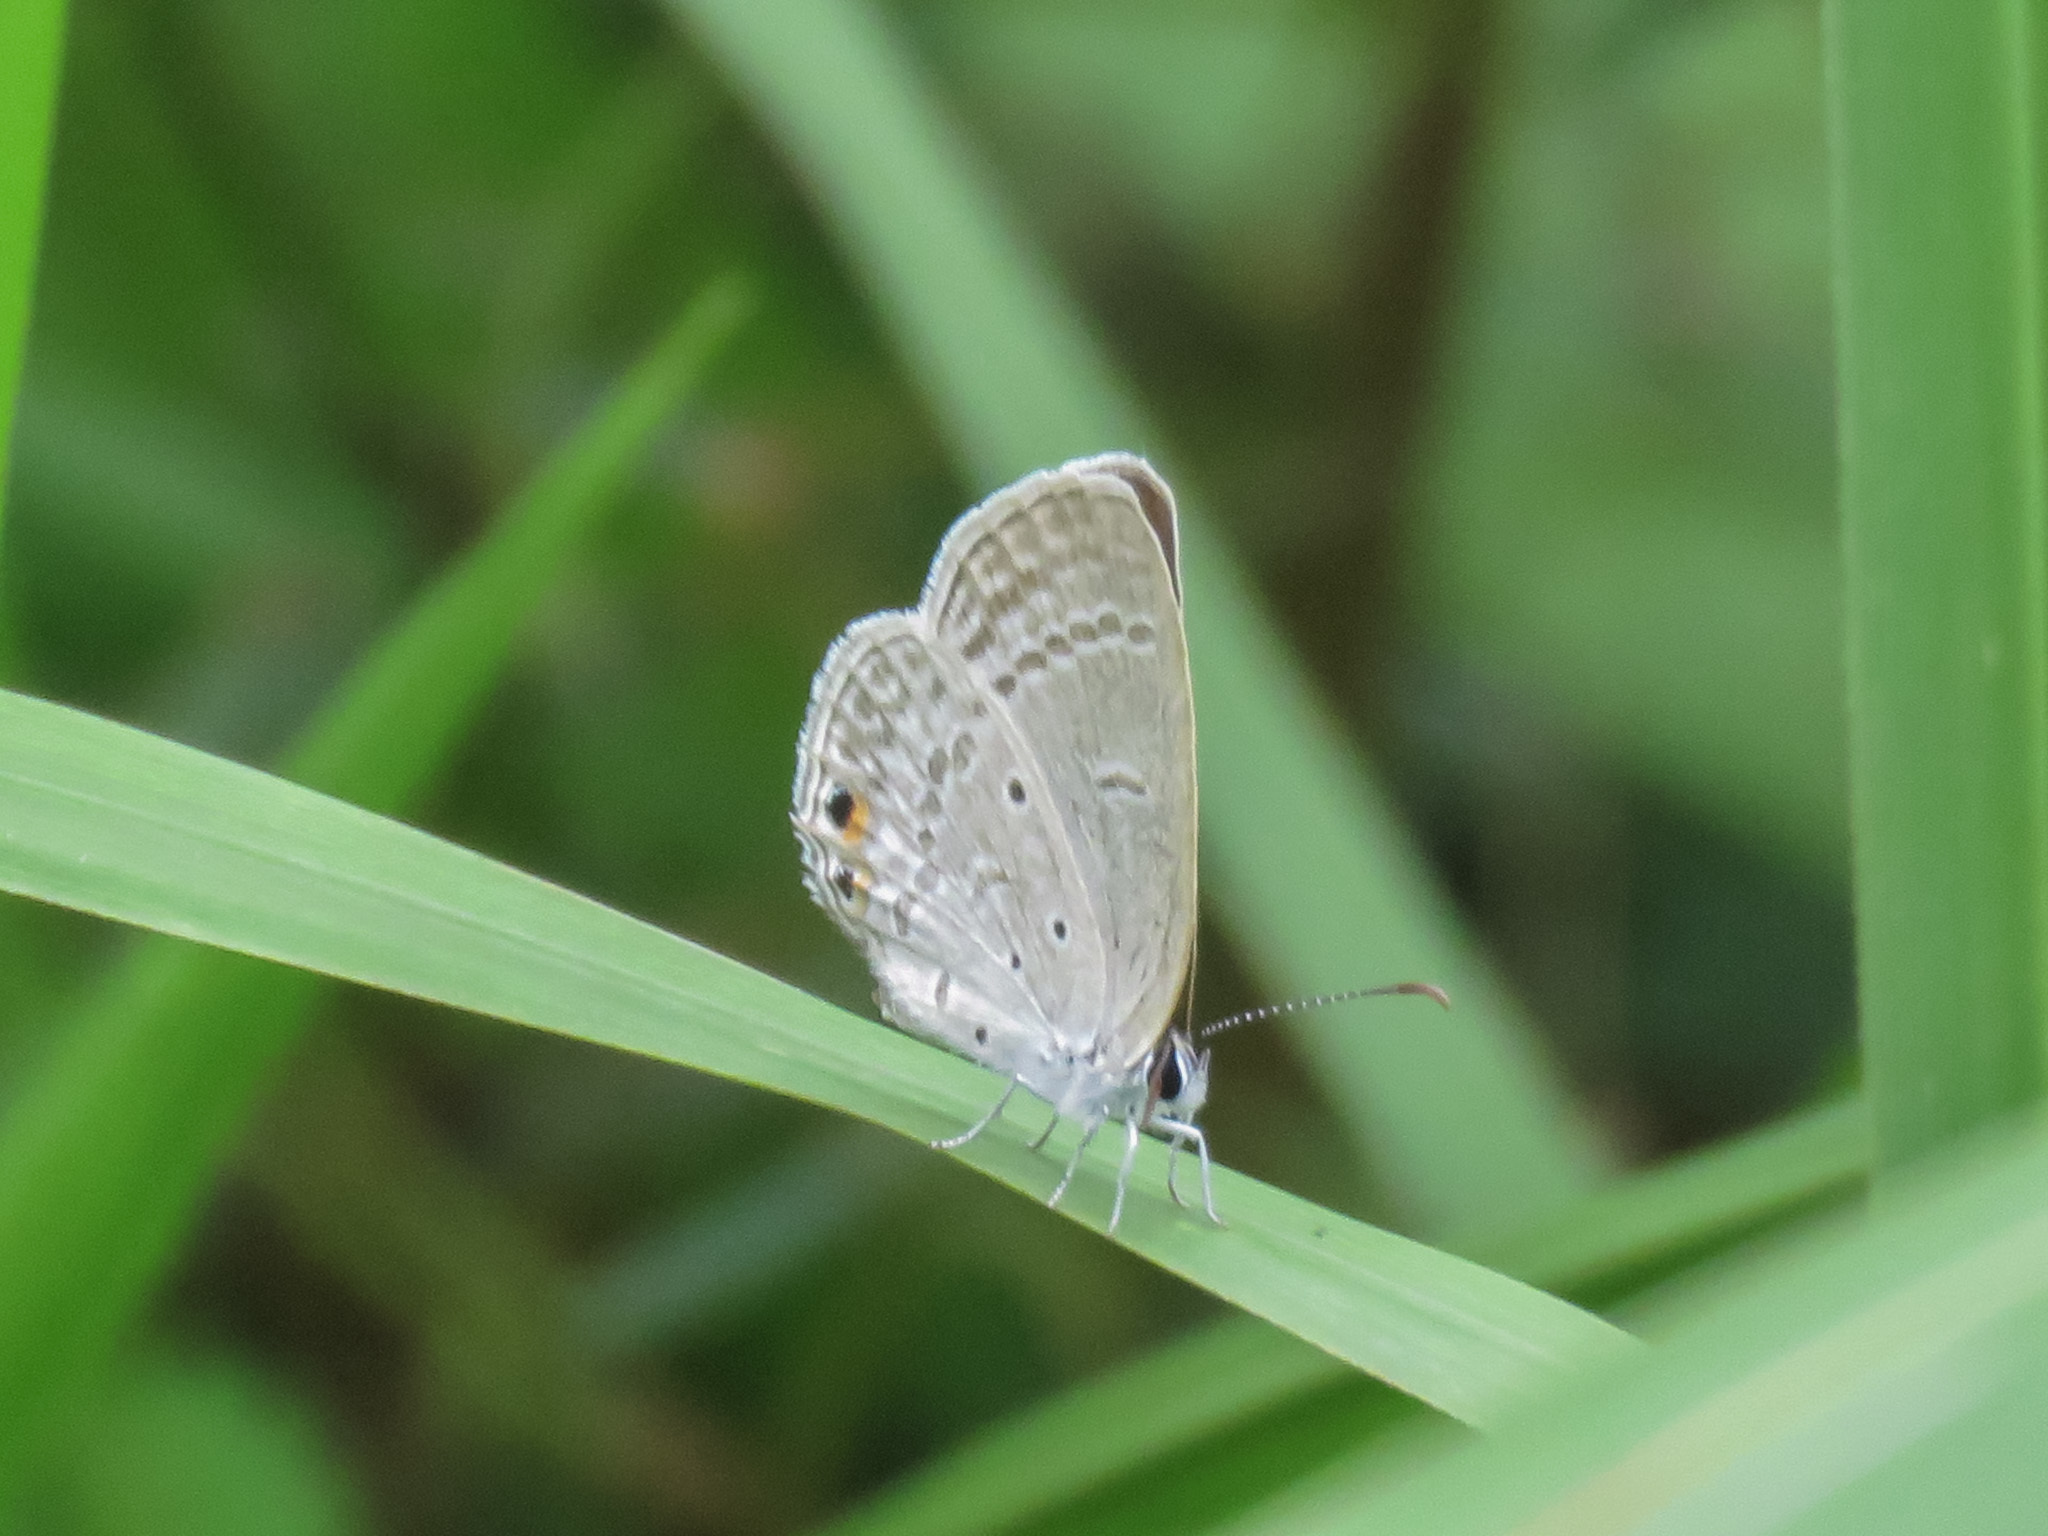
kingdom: Animalia
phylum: Arthropoda
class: Insecta
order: Lepidoptera
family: Lycaenidae
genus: Euchrysops
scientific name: Euchrysops cnejus
